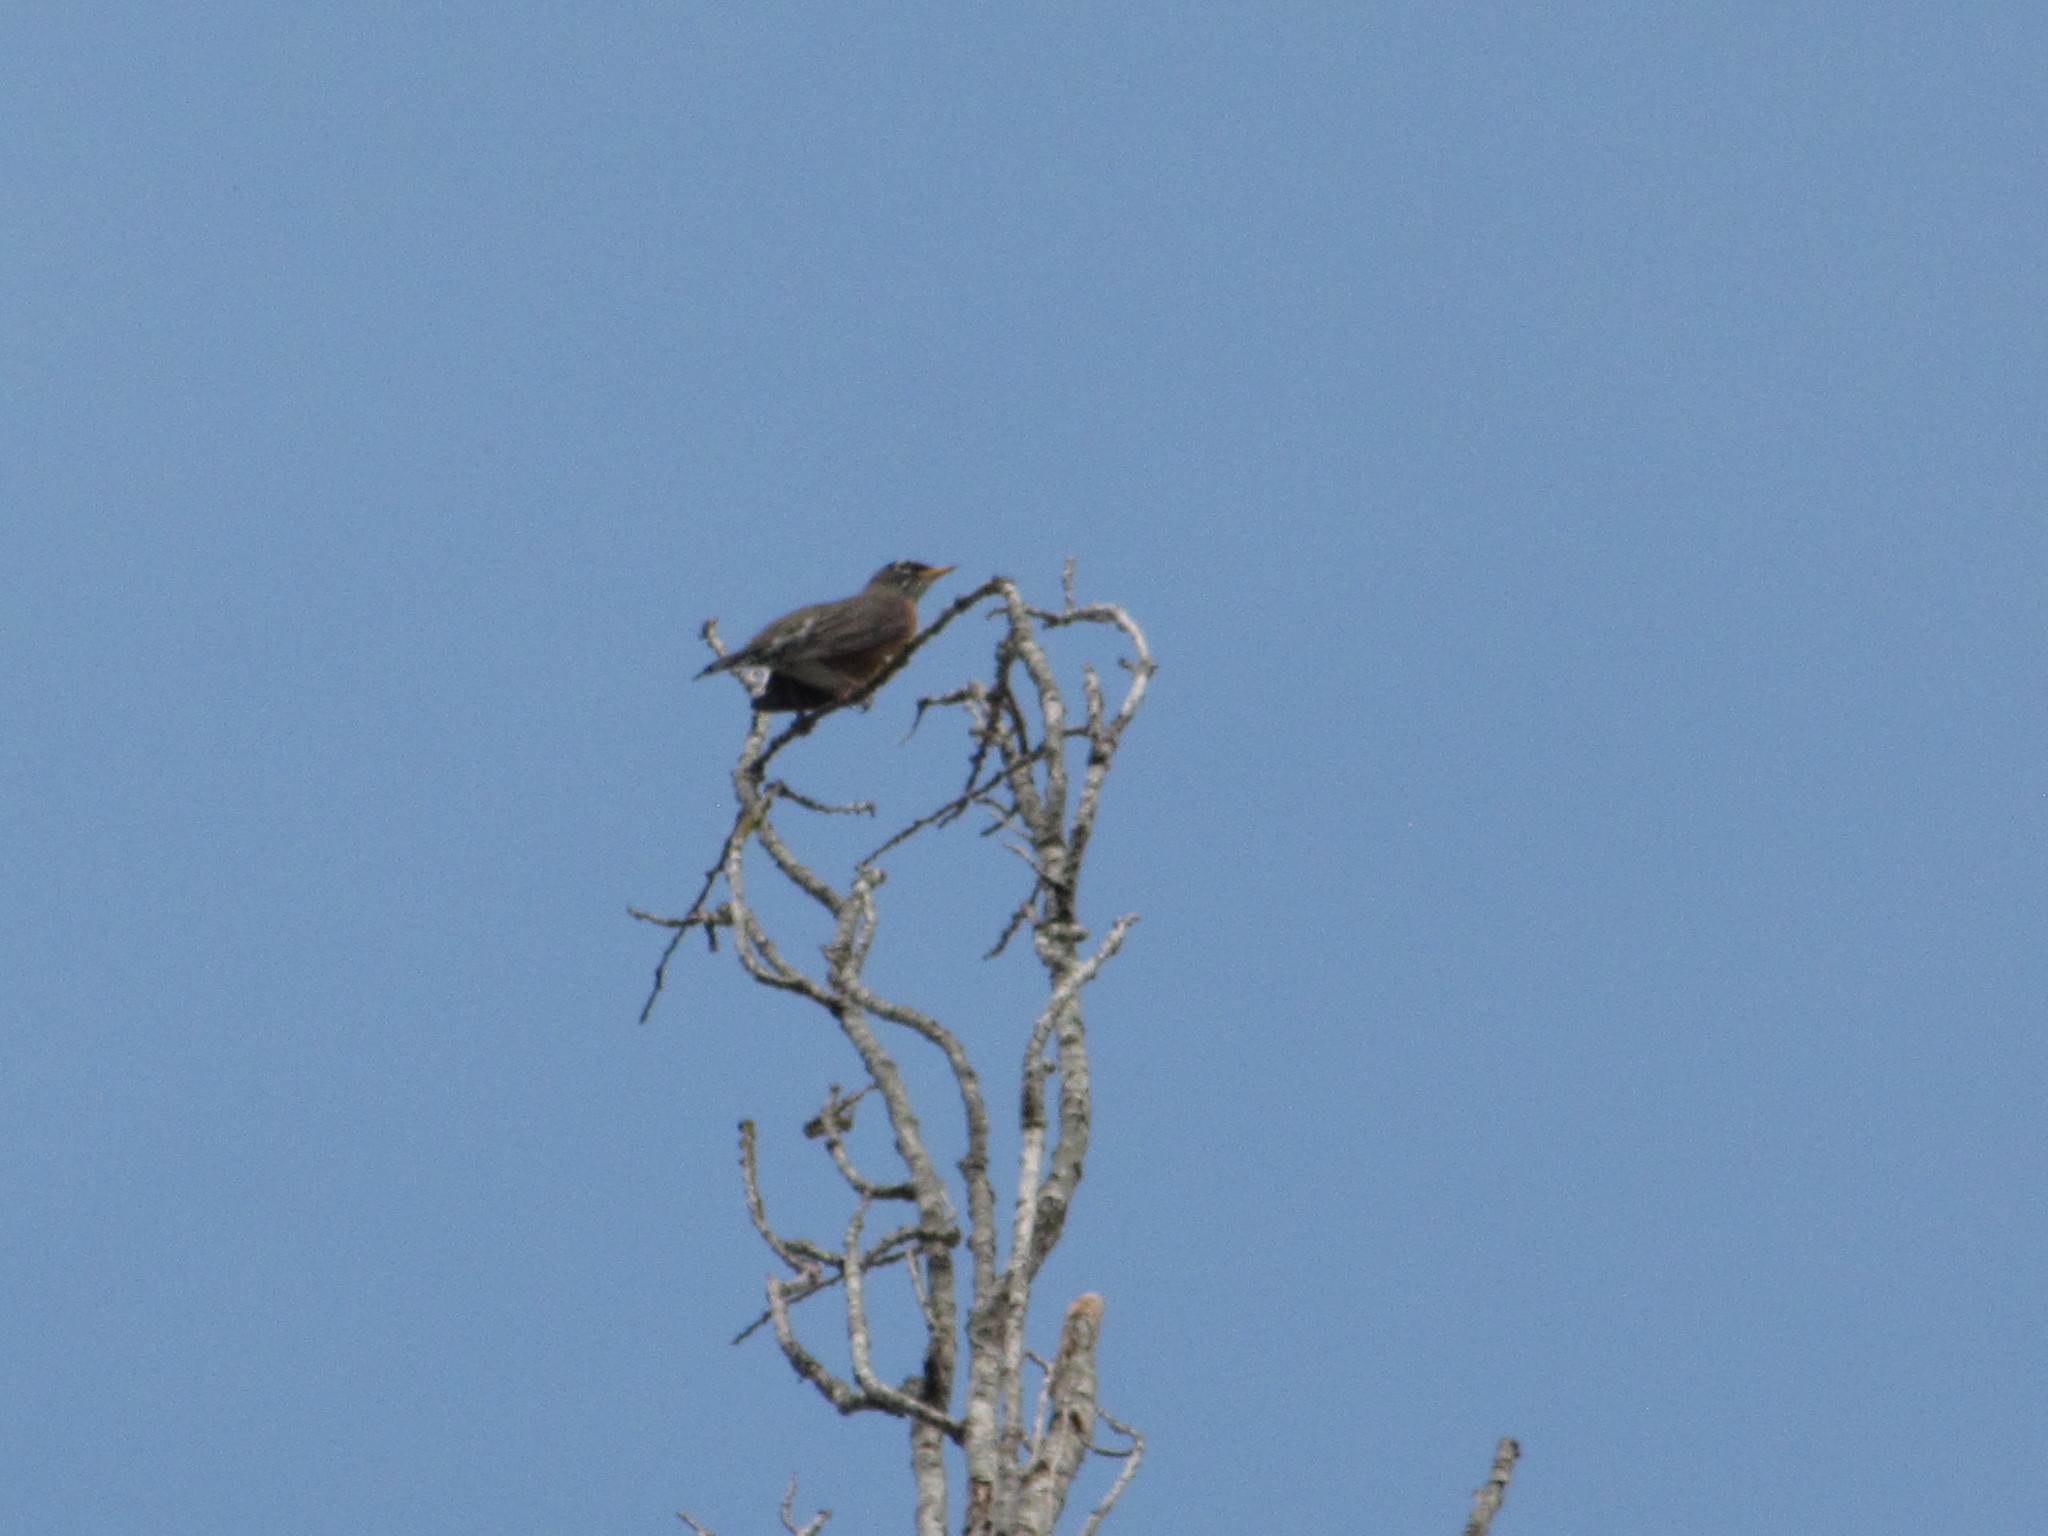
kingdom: Animalia
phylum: Chordata
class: Aves
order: Passeriformes
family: Turdidae
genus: Turdus
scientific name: Turdus migratorius
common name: American robin
